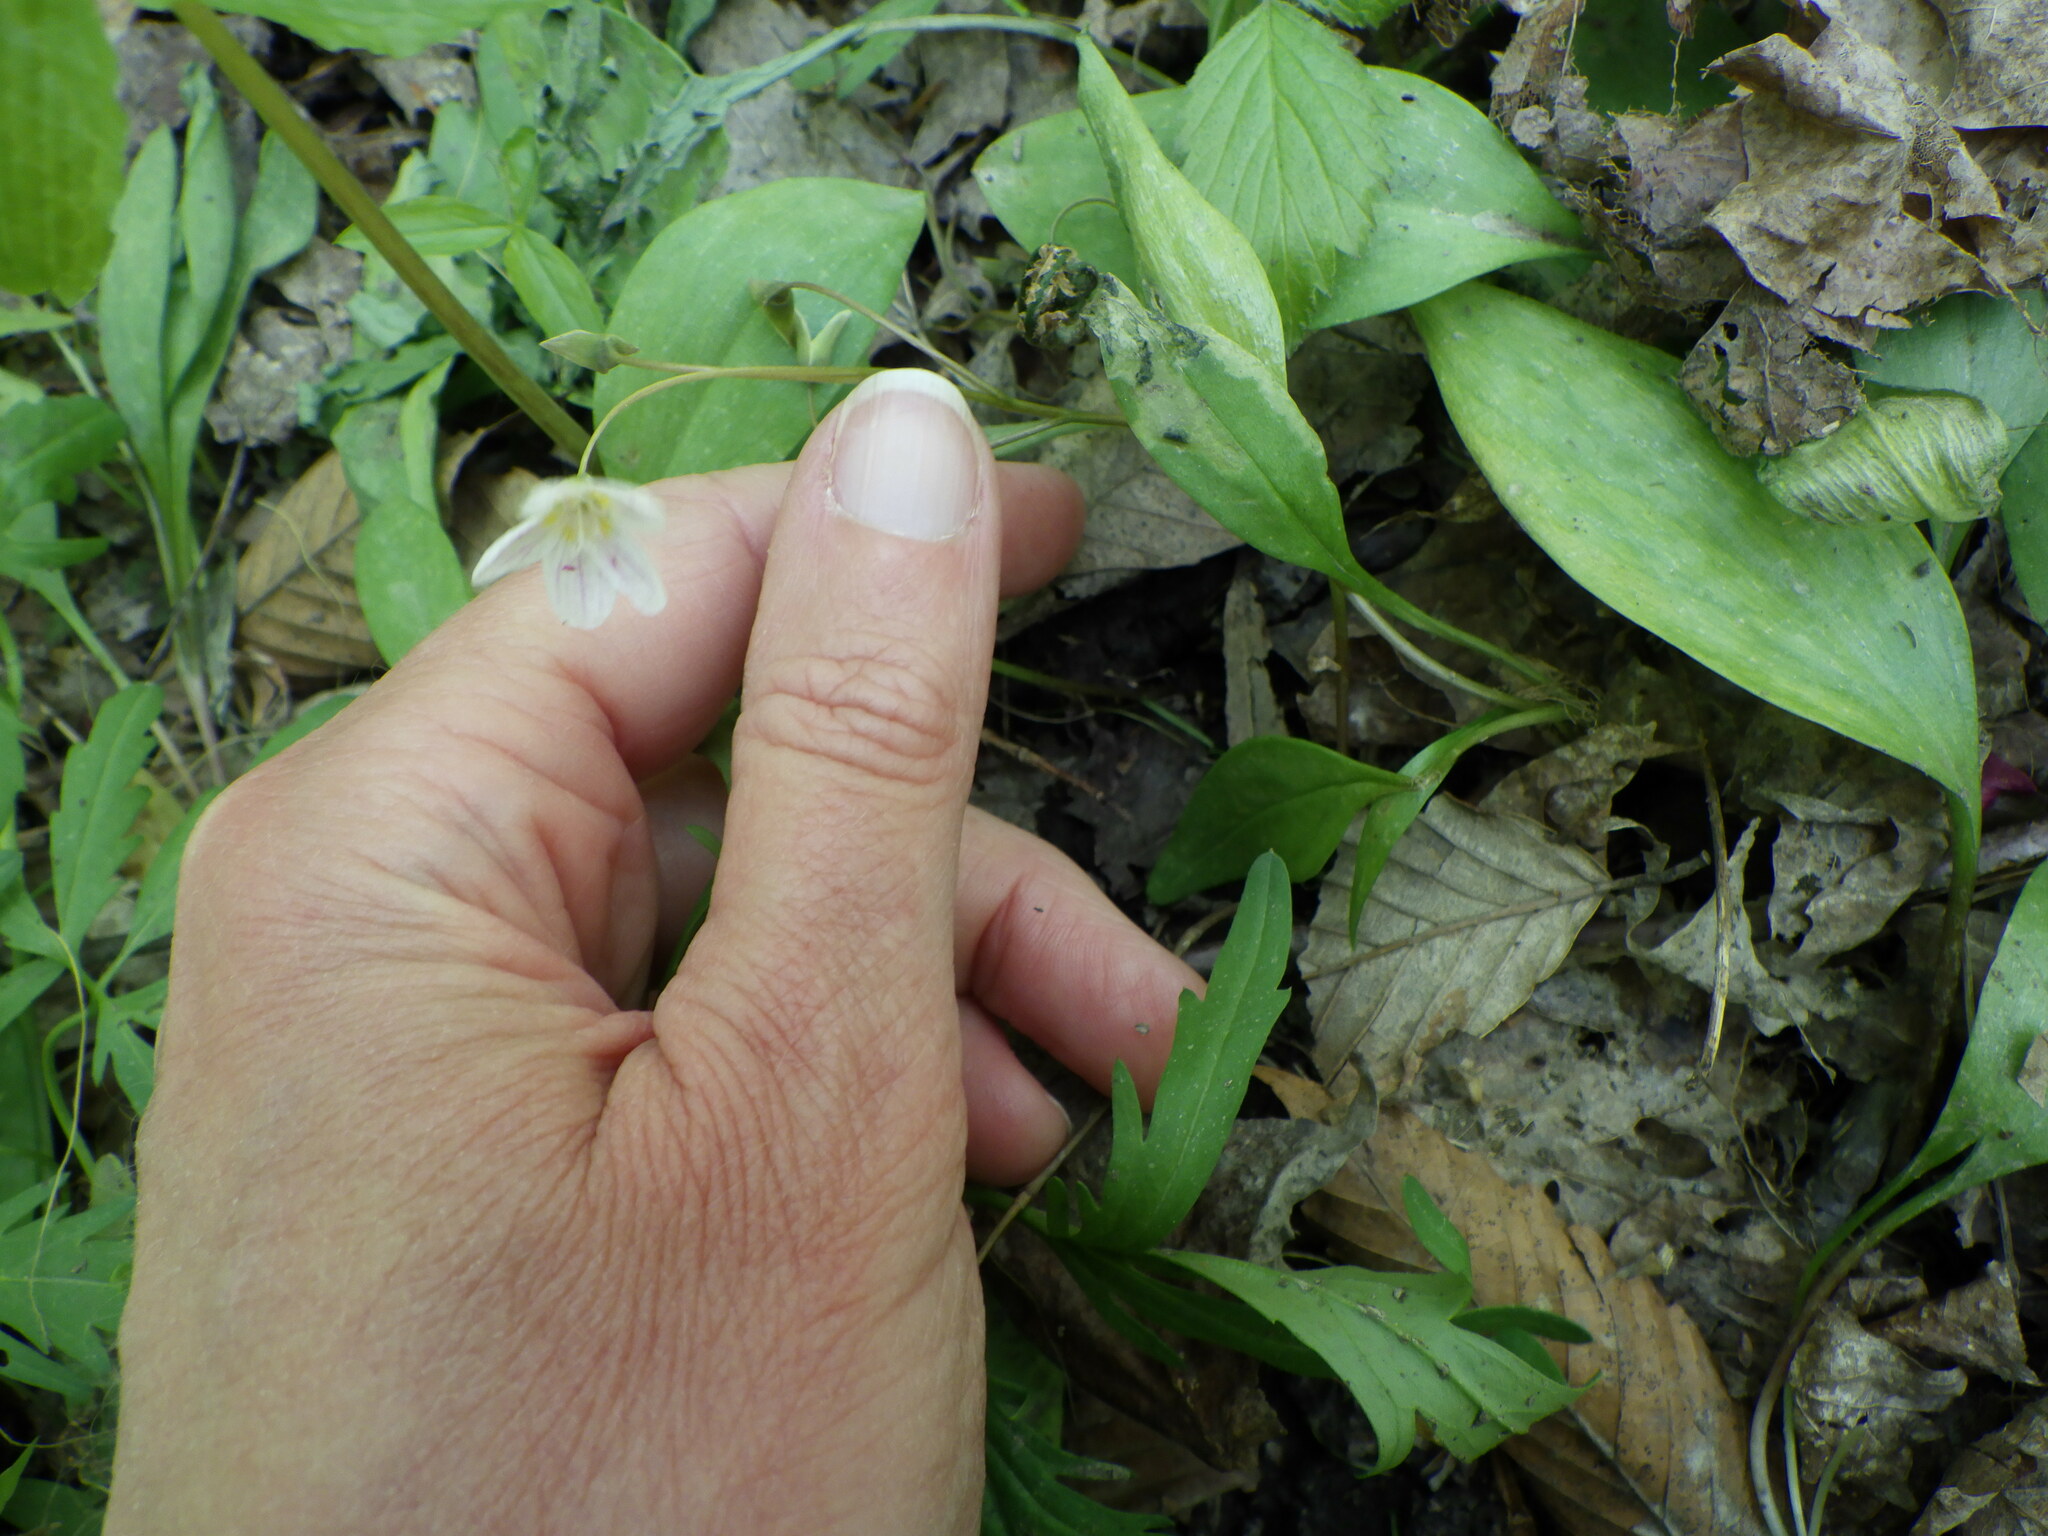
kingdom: Plantae
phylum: Tracheophyta
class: Magnoliopsida
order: Caryophyllales
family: Montiaceae
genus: Claytonia
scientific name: Claytonia caroliniana
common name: Carolina spring beauty
